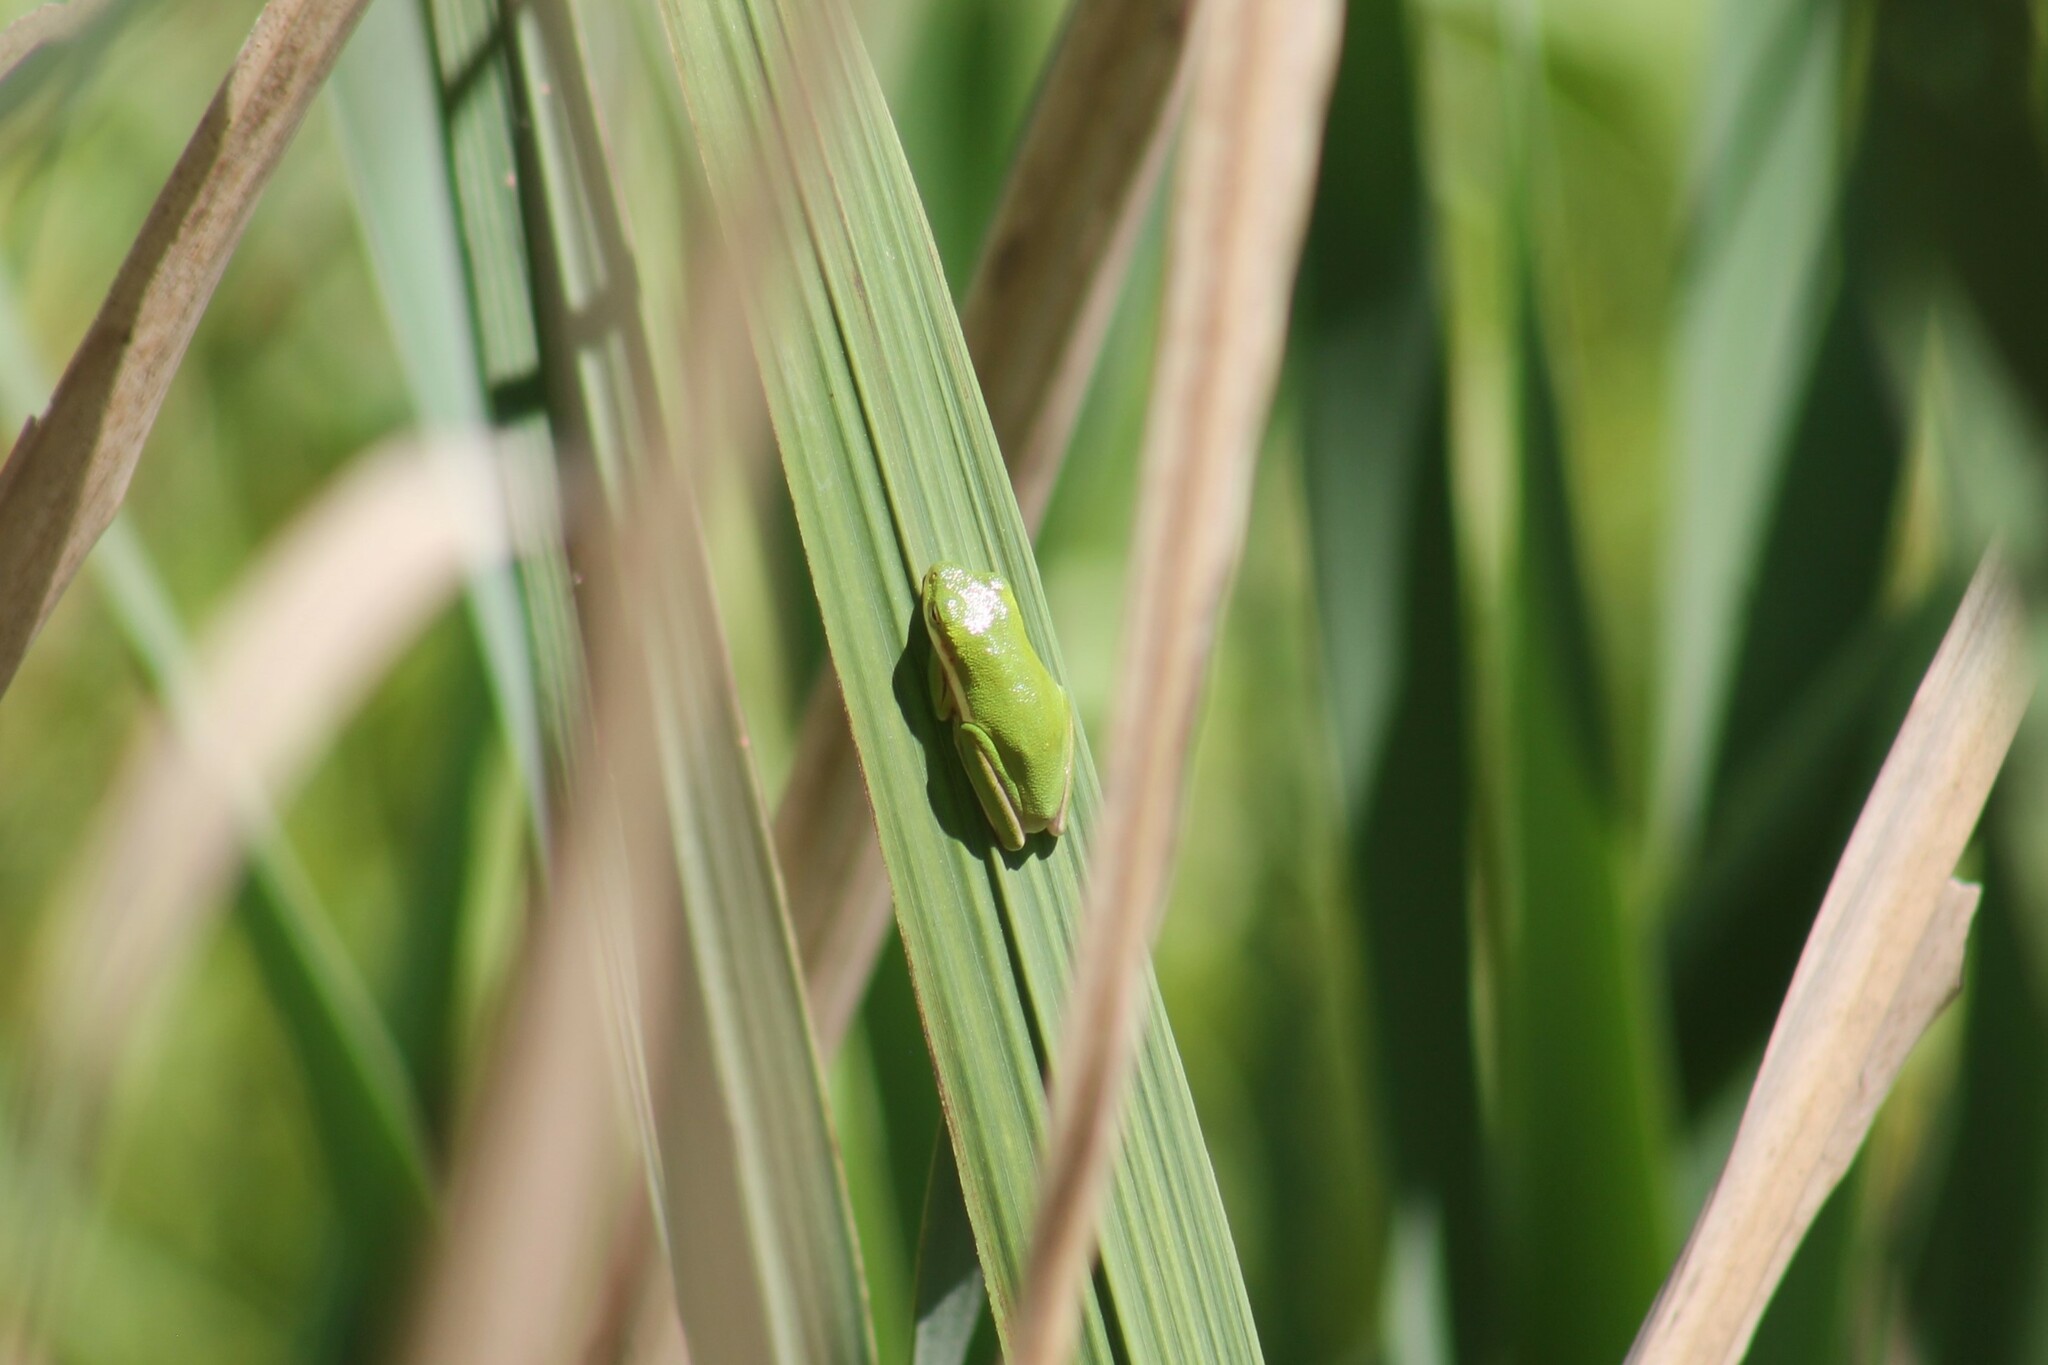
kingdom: Animalia
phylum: Chordata
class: Amphibia
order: Anura
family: Hylidae
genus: Dryophytes
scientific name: Dryophytes cinereus
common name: Green treefrog
